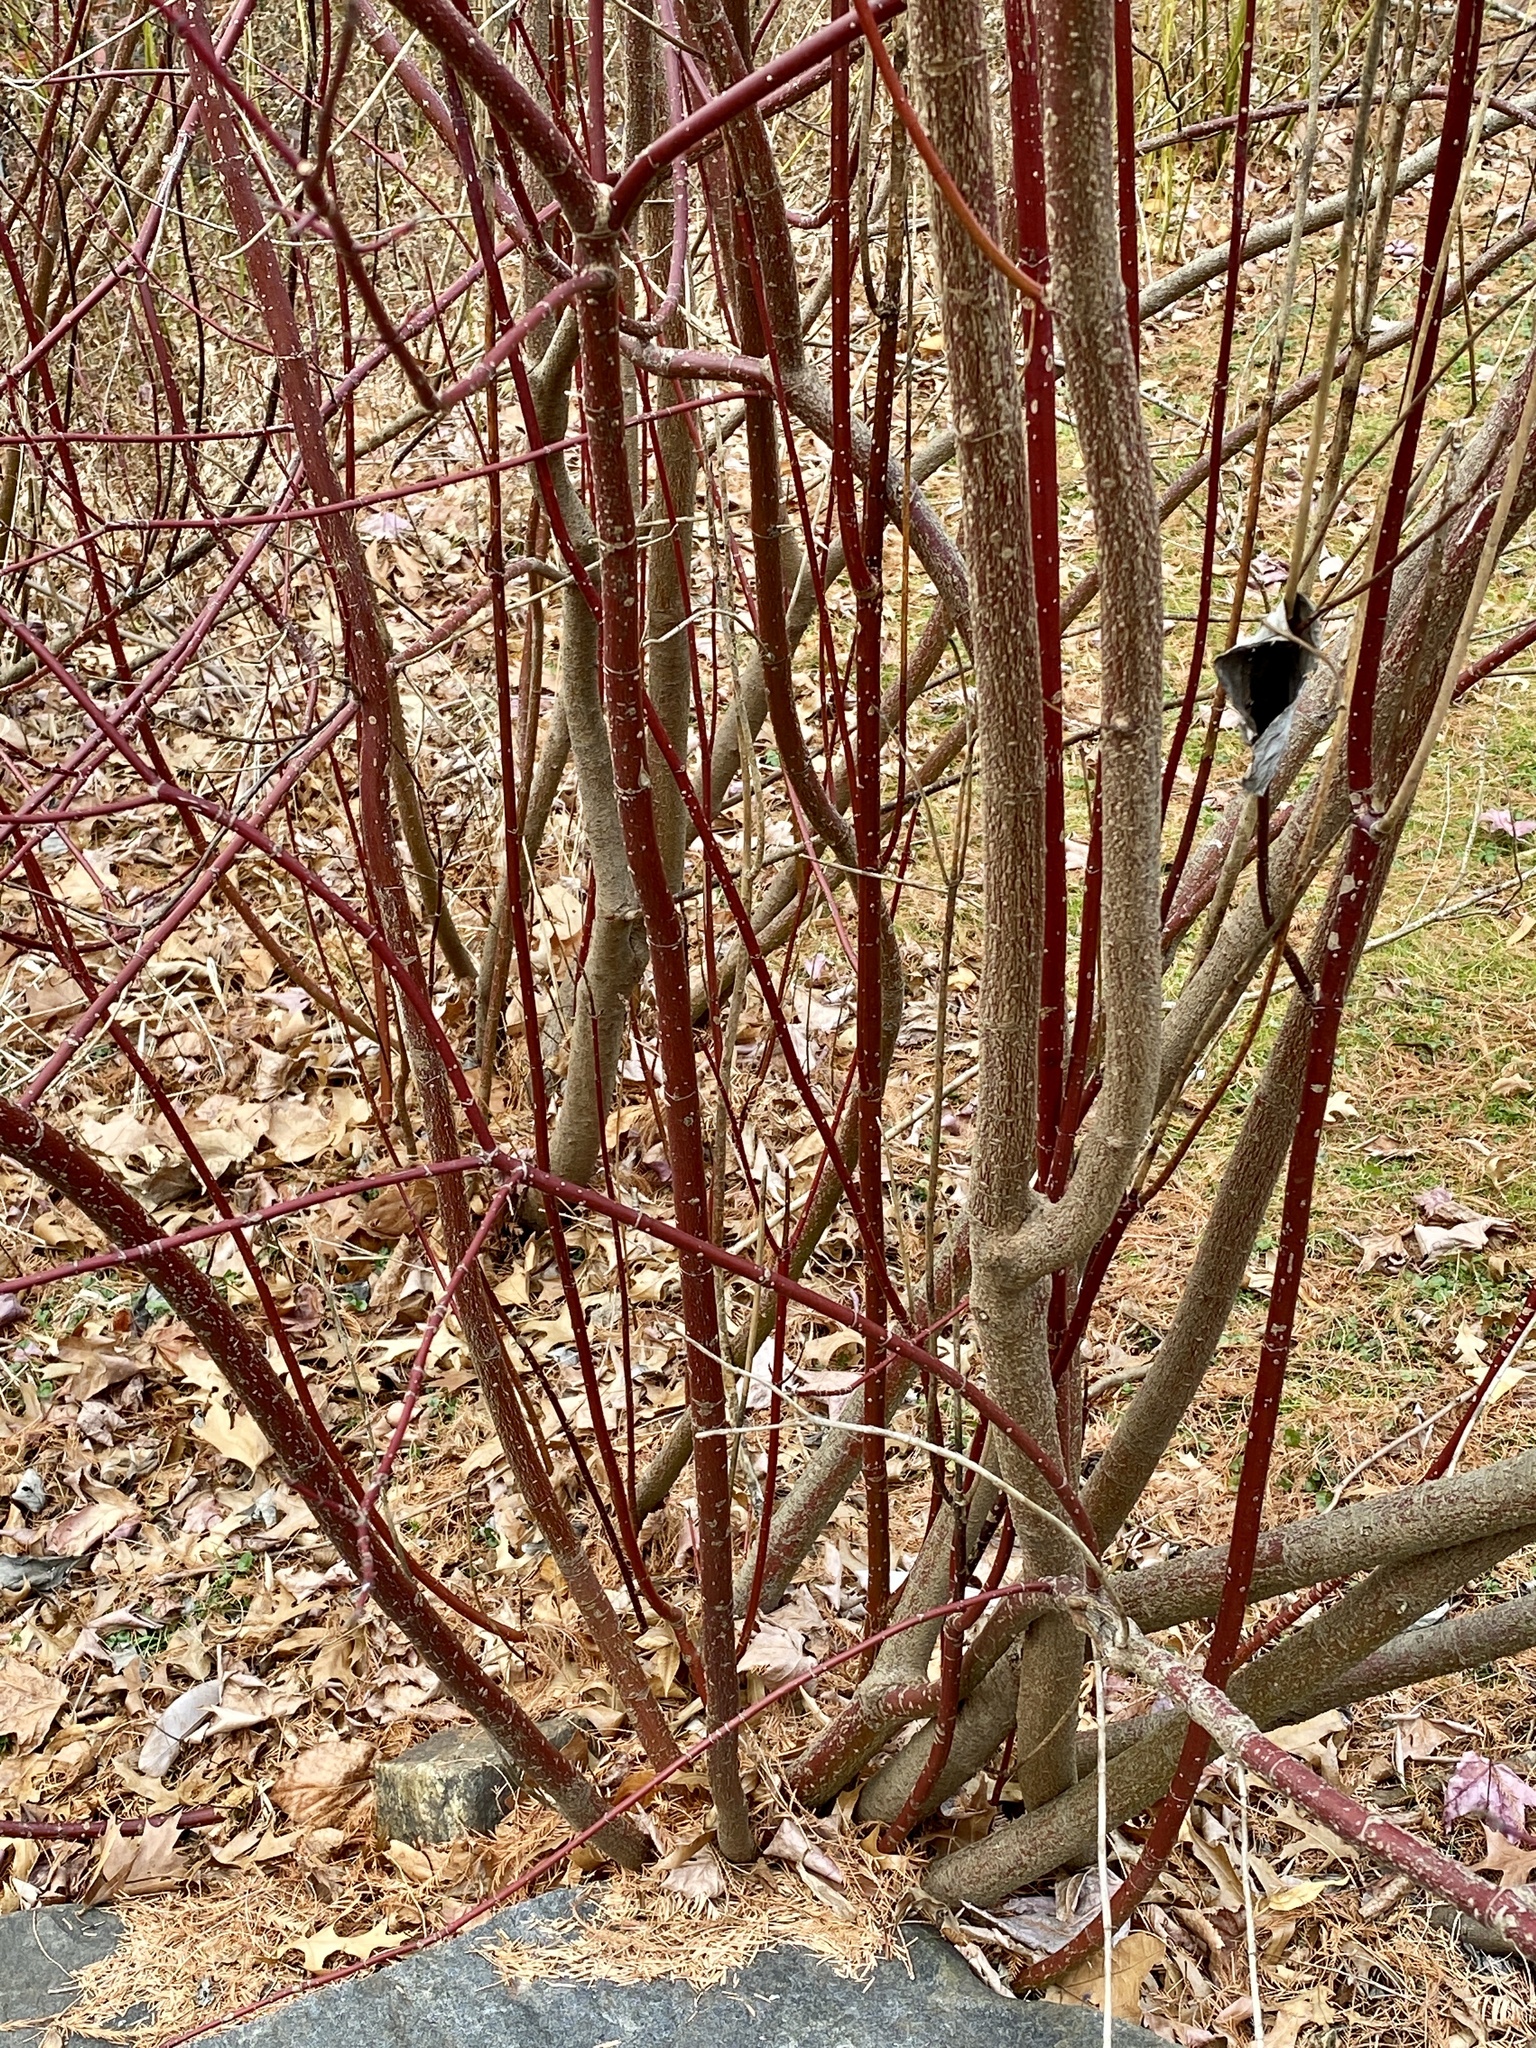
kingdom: Plantae
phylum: Tracheophyta
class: Magnoliopsida
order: Cornales
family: Cornaceae
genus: Cornus
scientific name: Cornus amomum
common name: Silky dogwood
